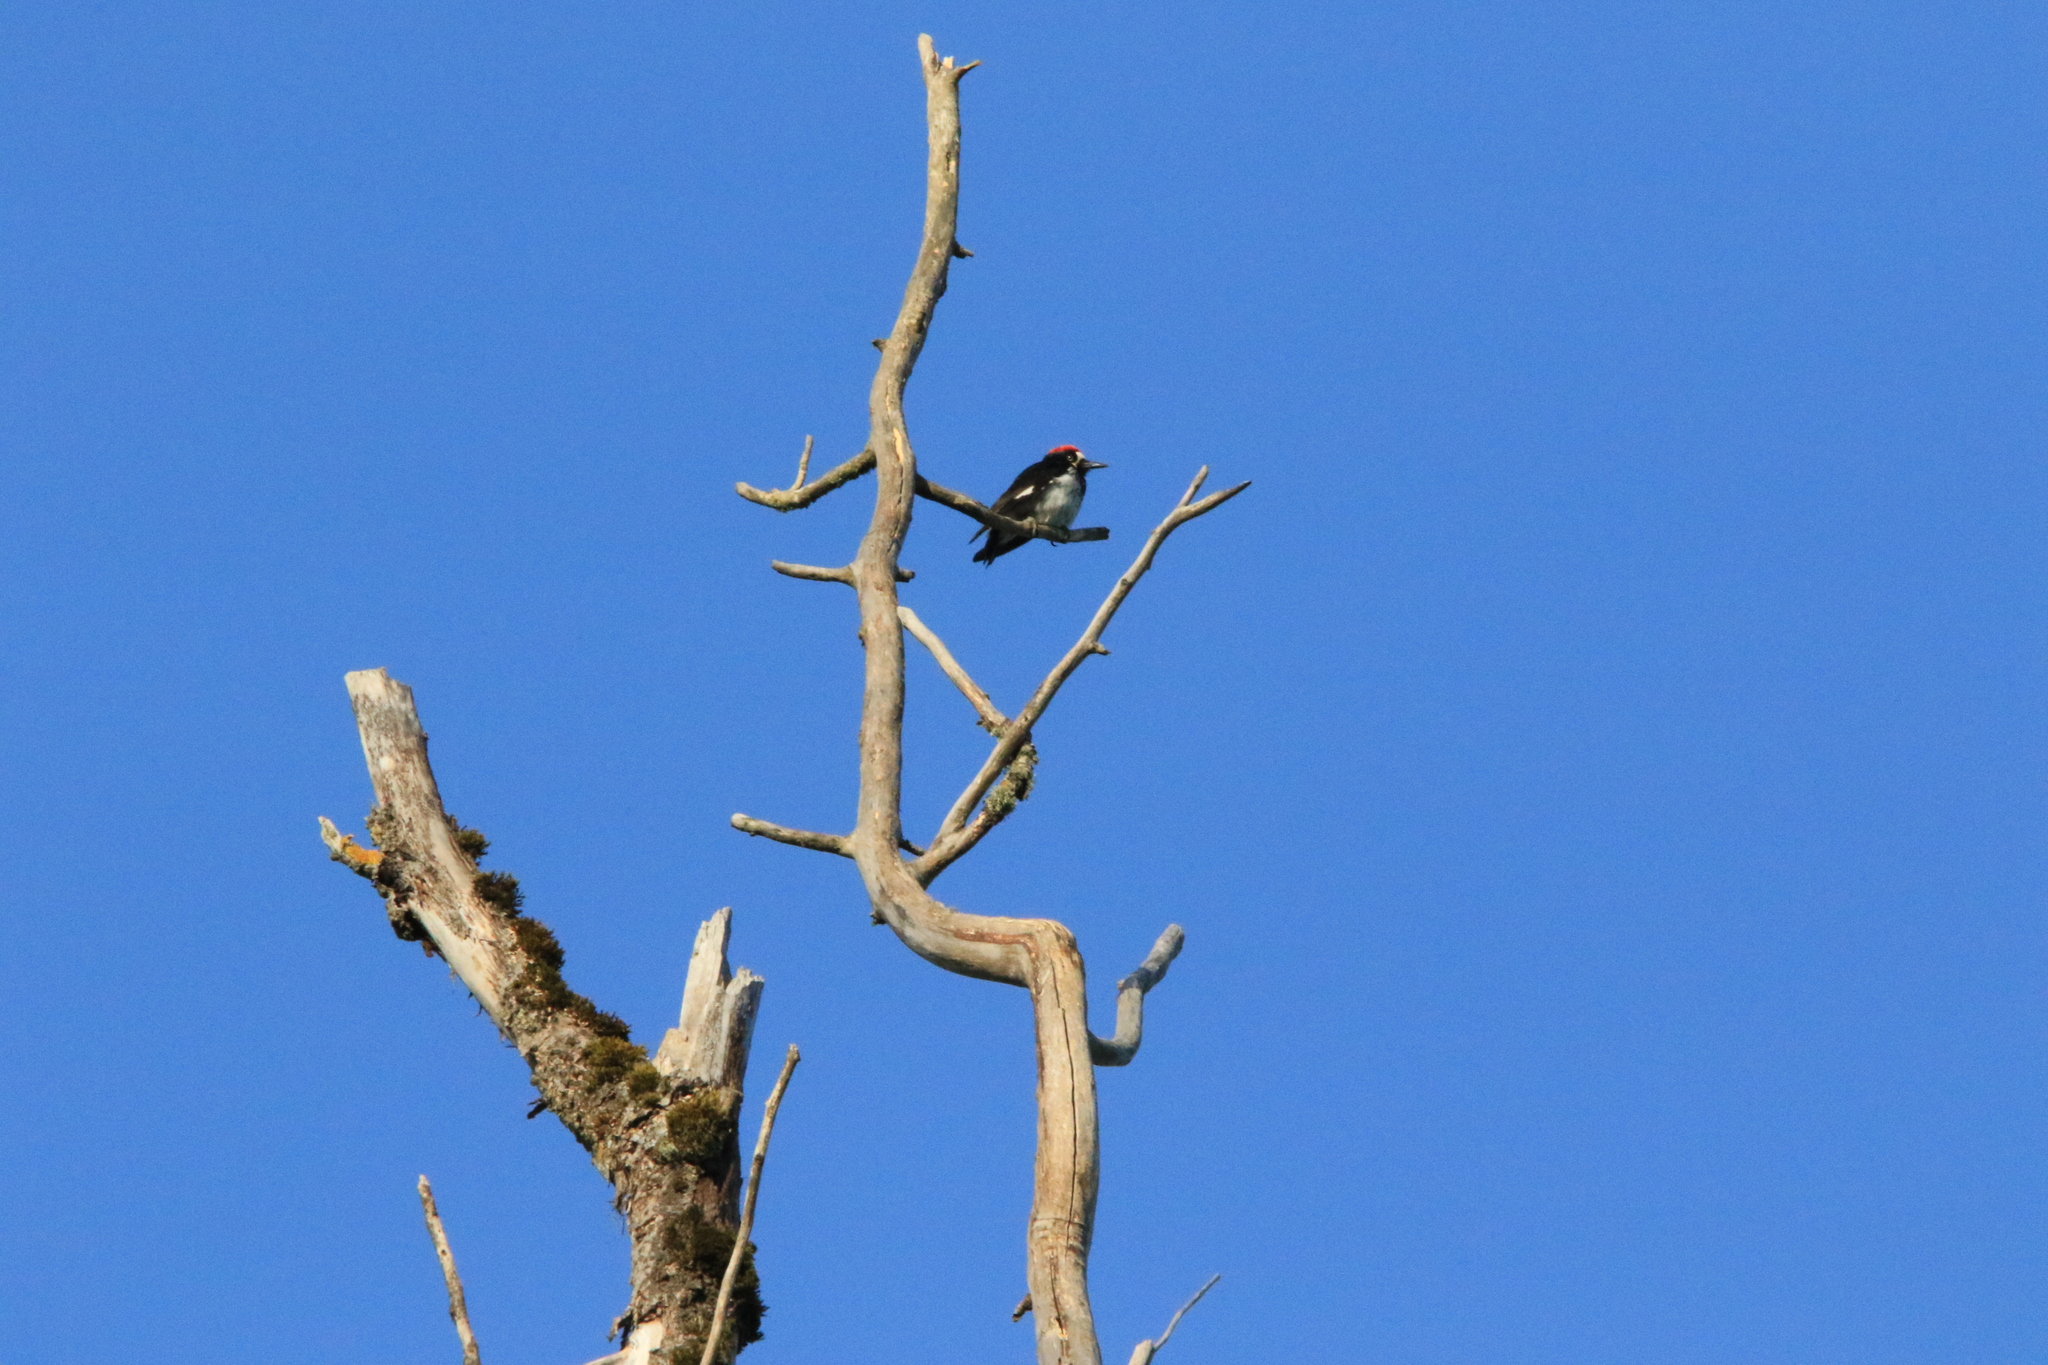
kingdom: Animalia
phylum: Chordata
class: Aves
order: Piciformes
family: Picidae
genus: Melanerpes
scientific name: Melanerpes formicivorus
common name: Acorn woodpecker
